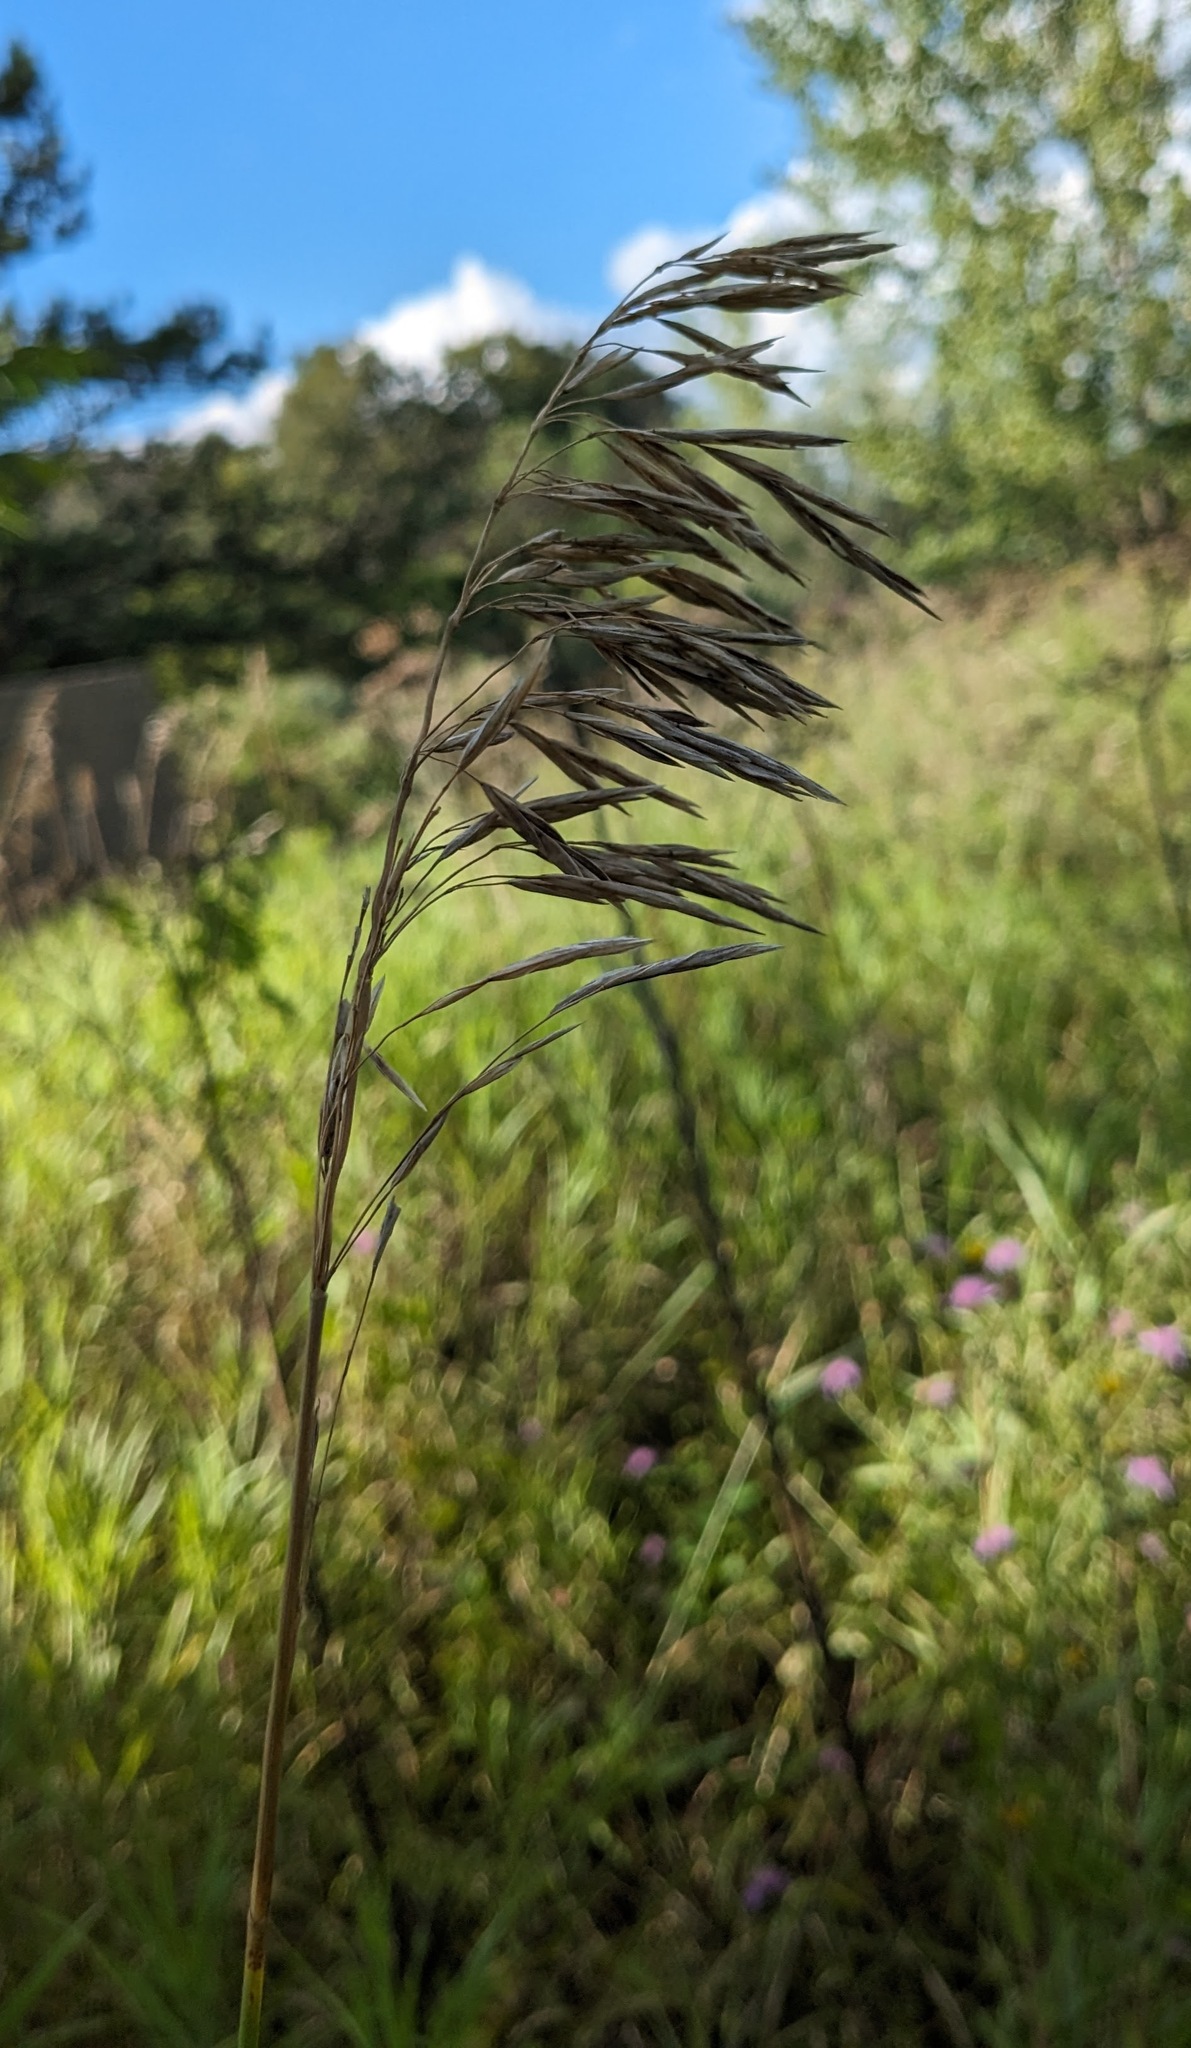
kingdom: Plantae
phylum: Tracheophyta
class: Liliopsida
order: Poales
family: Poaceae
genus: Bromus
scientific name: Bromus inermis
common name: Smooth brome
